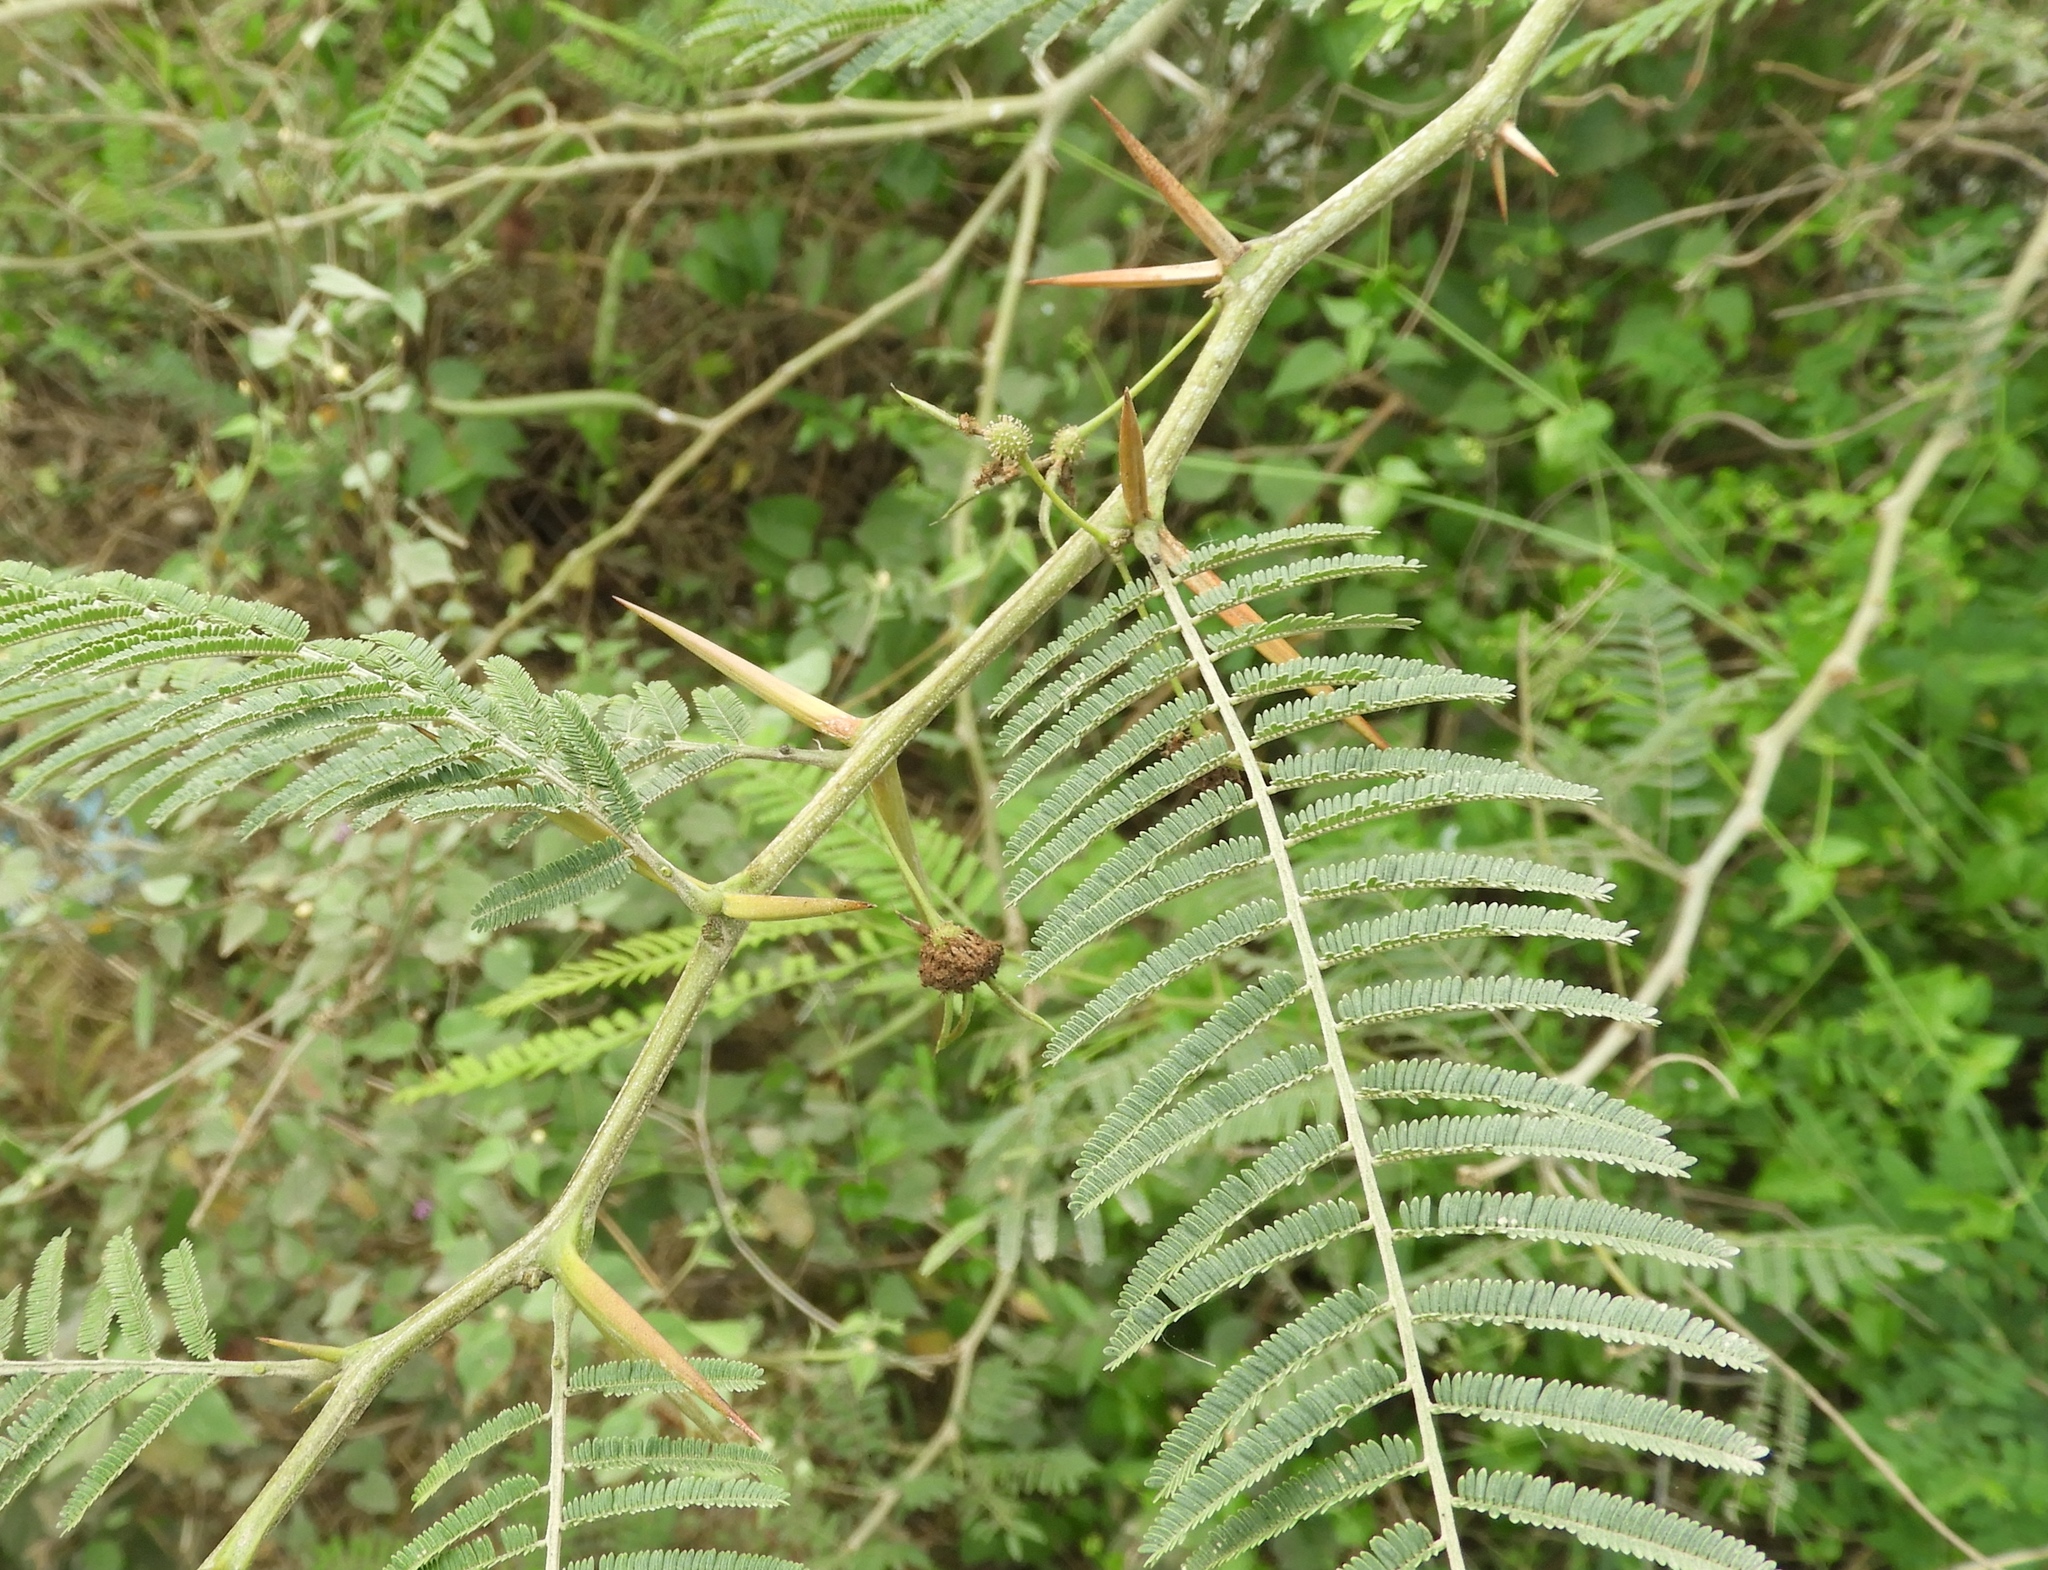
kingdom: Plantae
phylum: Tracheophyta
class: Magnoliopsida
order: Fabales
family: Fabaceae
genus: Vachellia
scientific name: Vachellia macracantha
